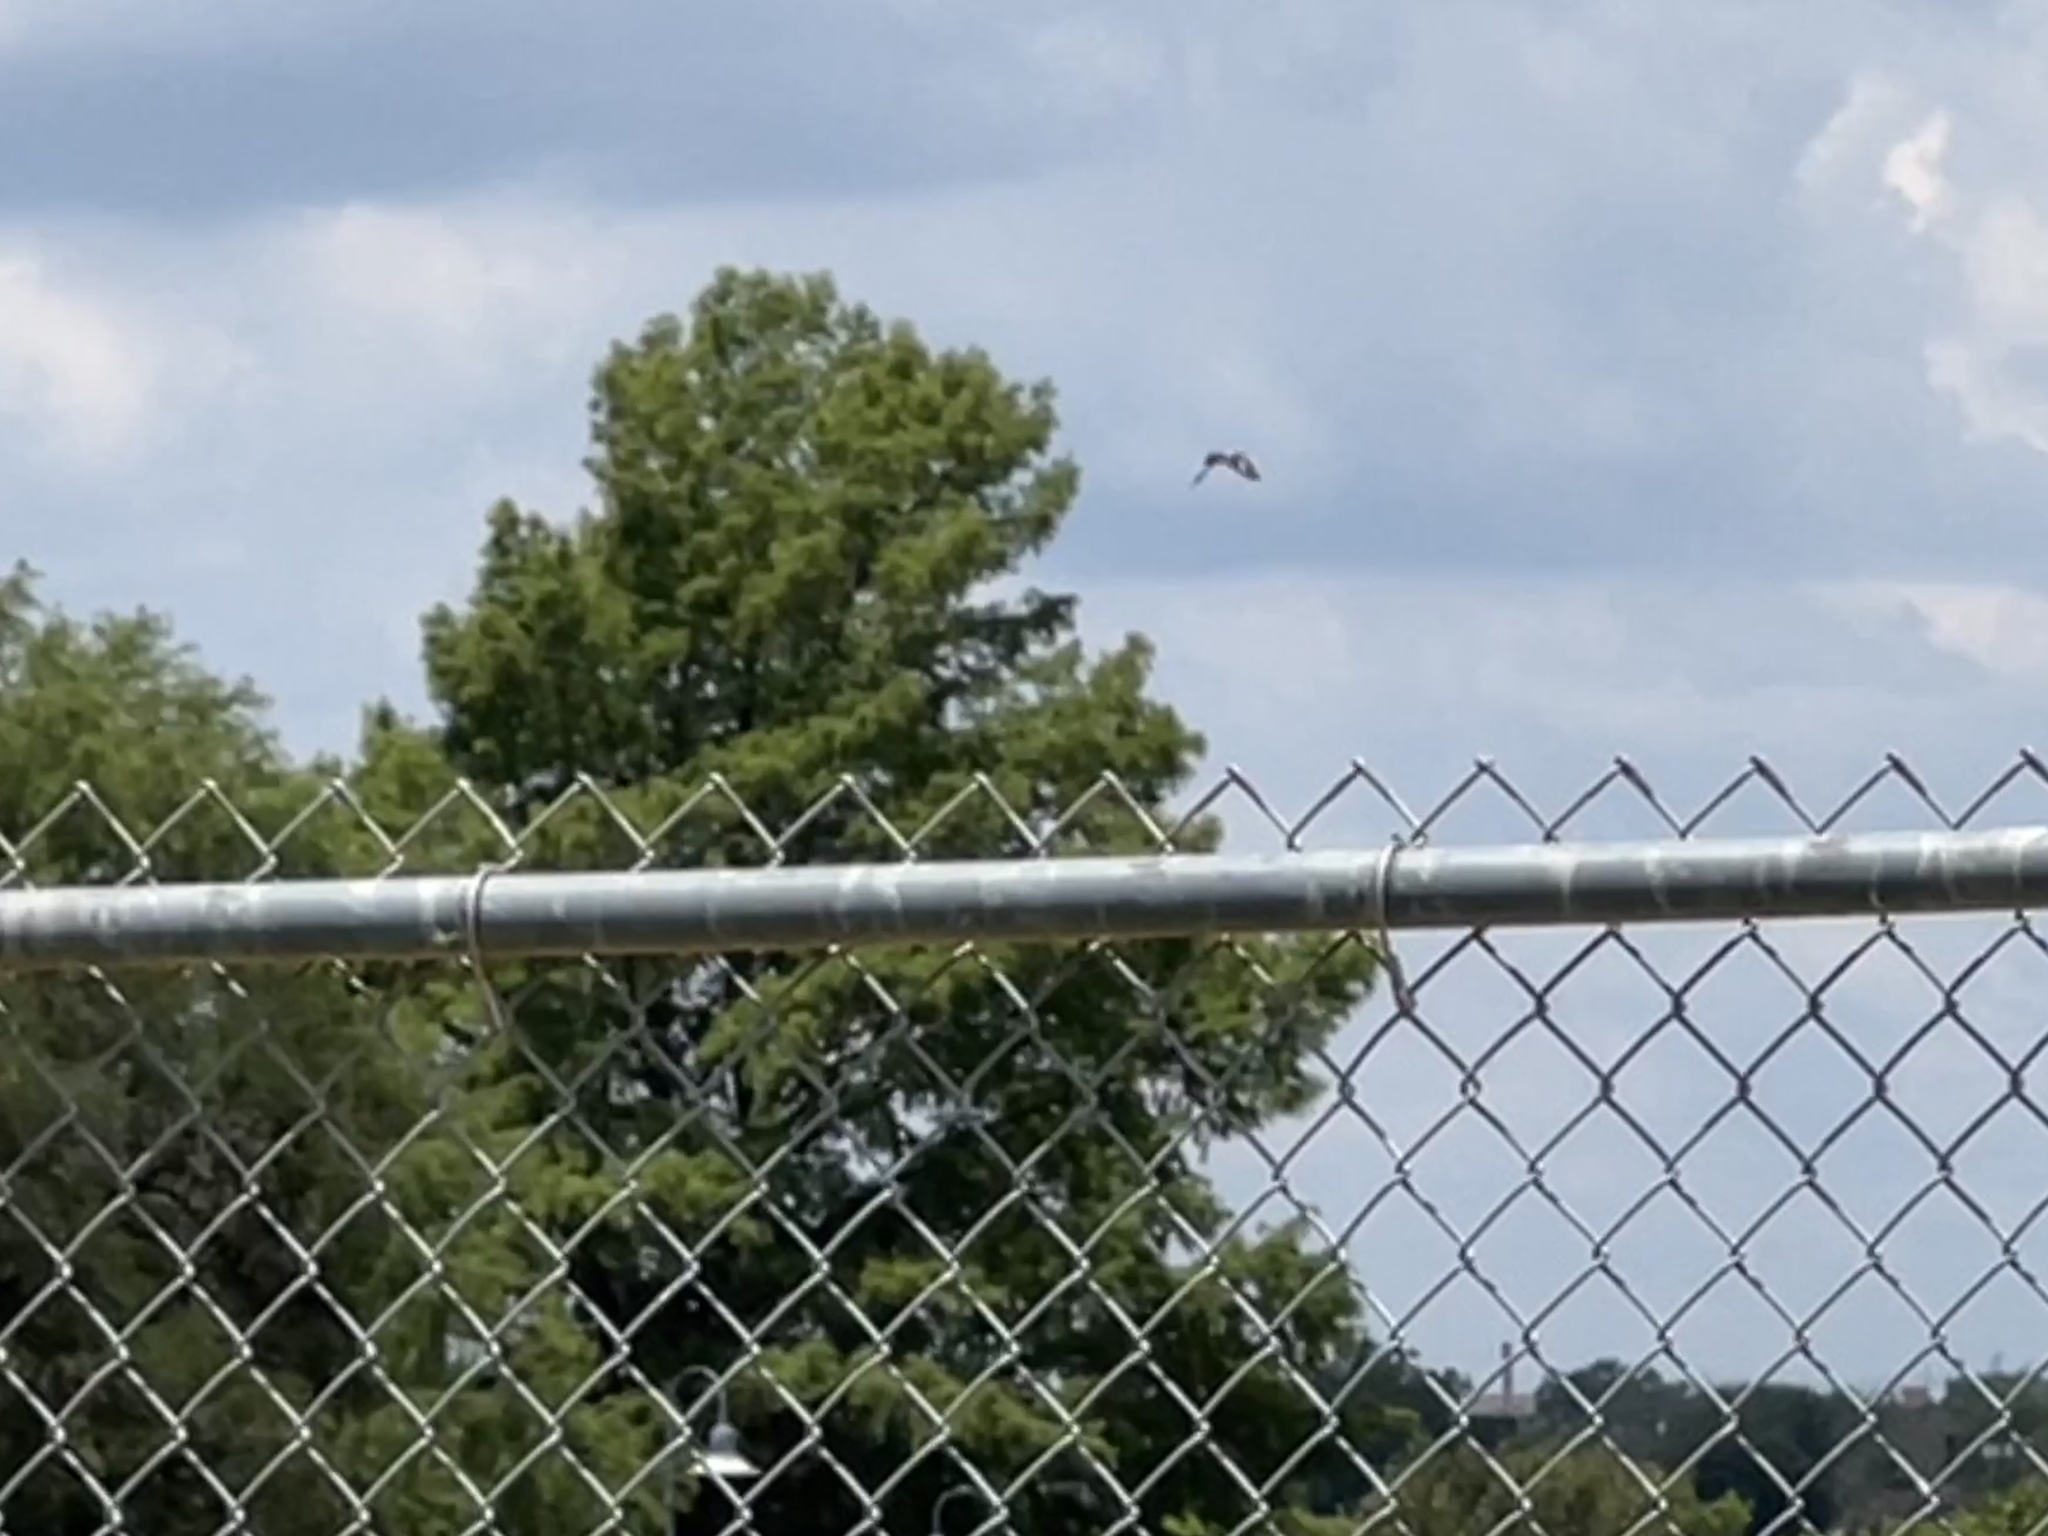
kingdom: Animalia
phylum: Chordata
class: Aves
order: Passeriformes
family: Laniidae
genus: Lanius
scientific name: Lanius ludovicianus
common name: Loggerhead shrike
